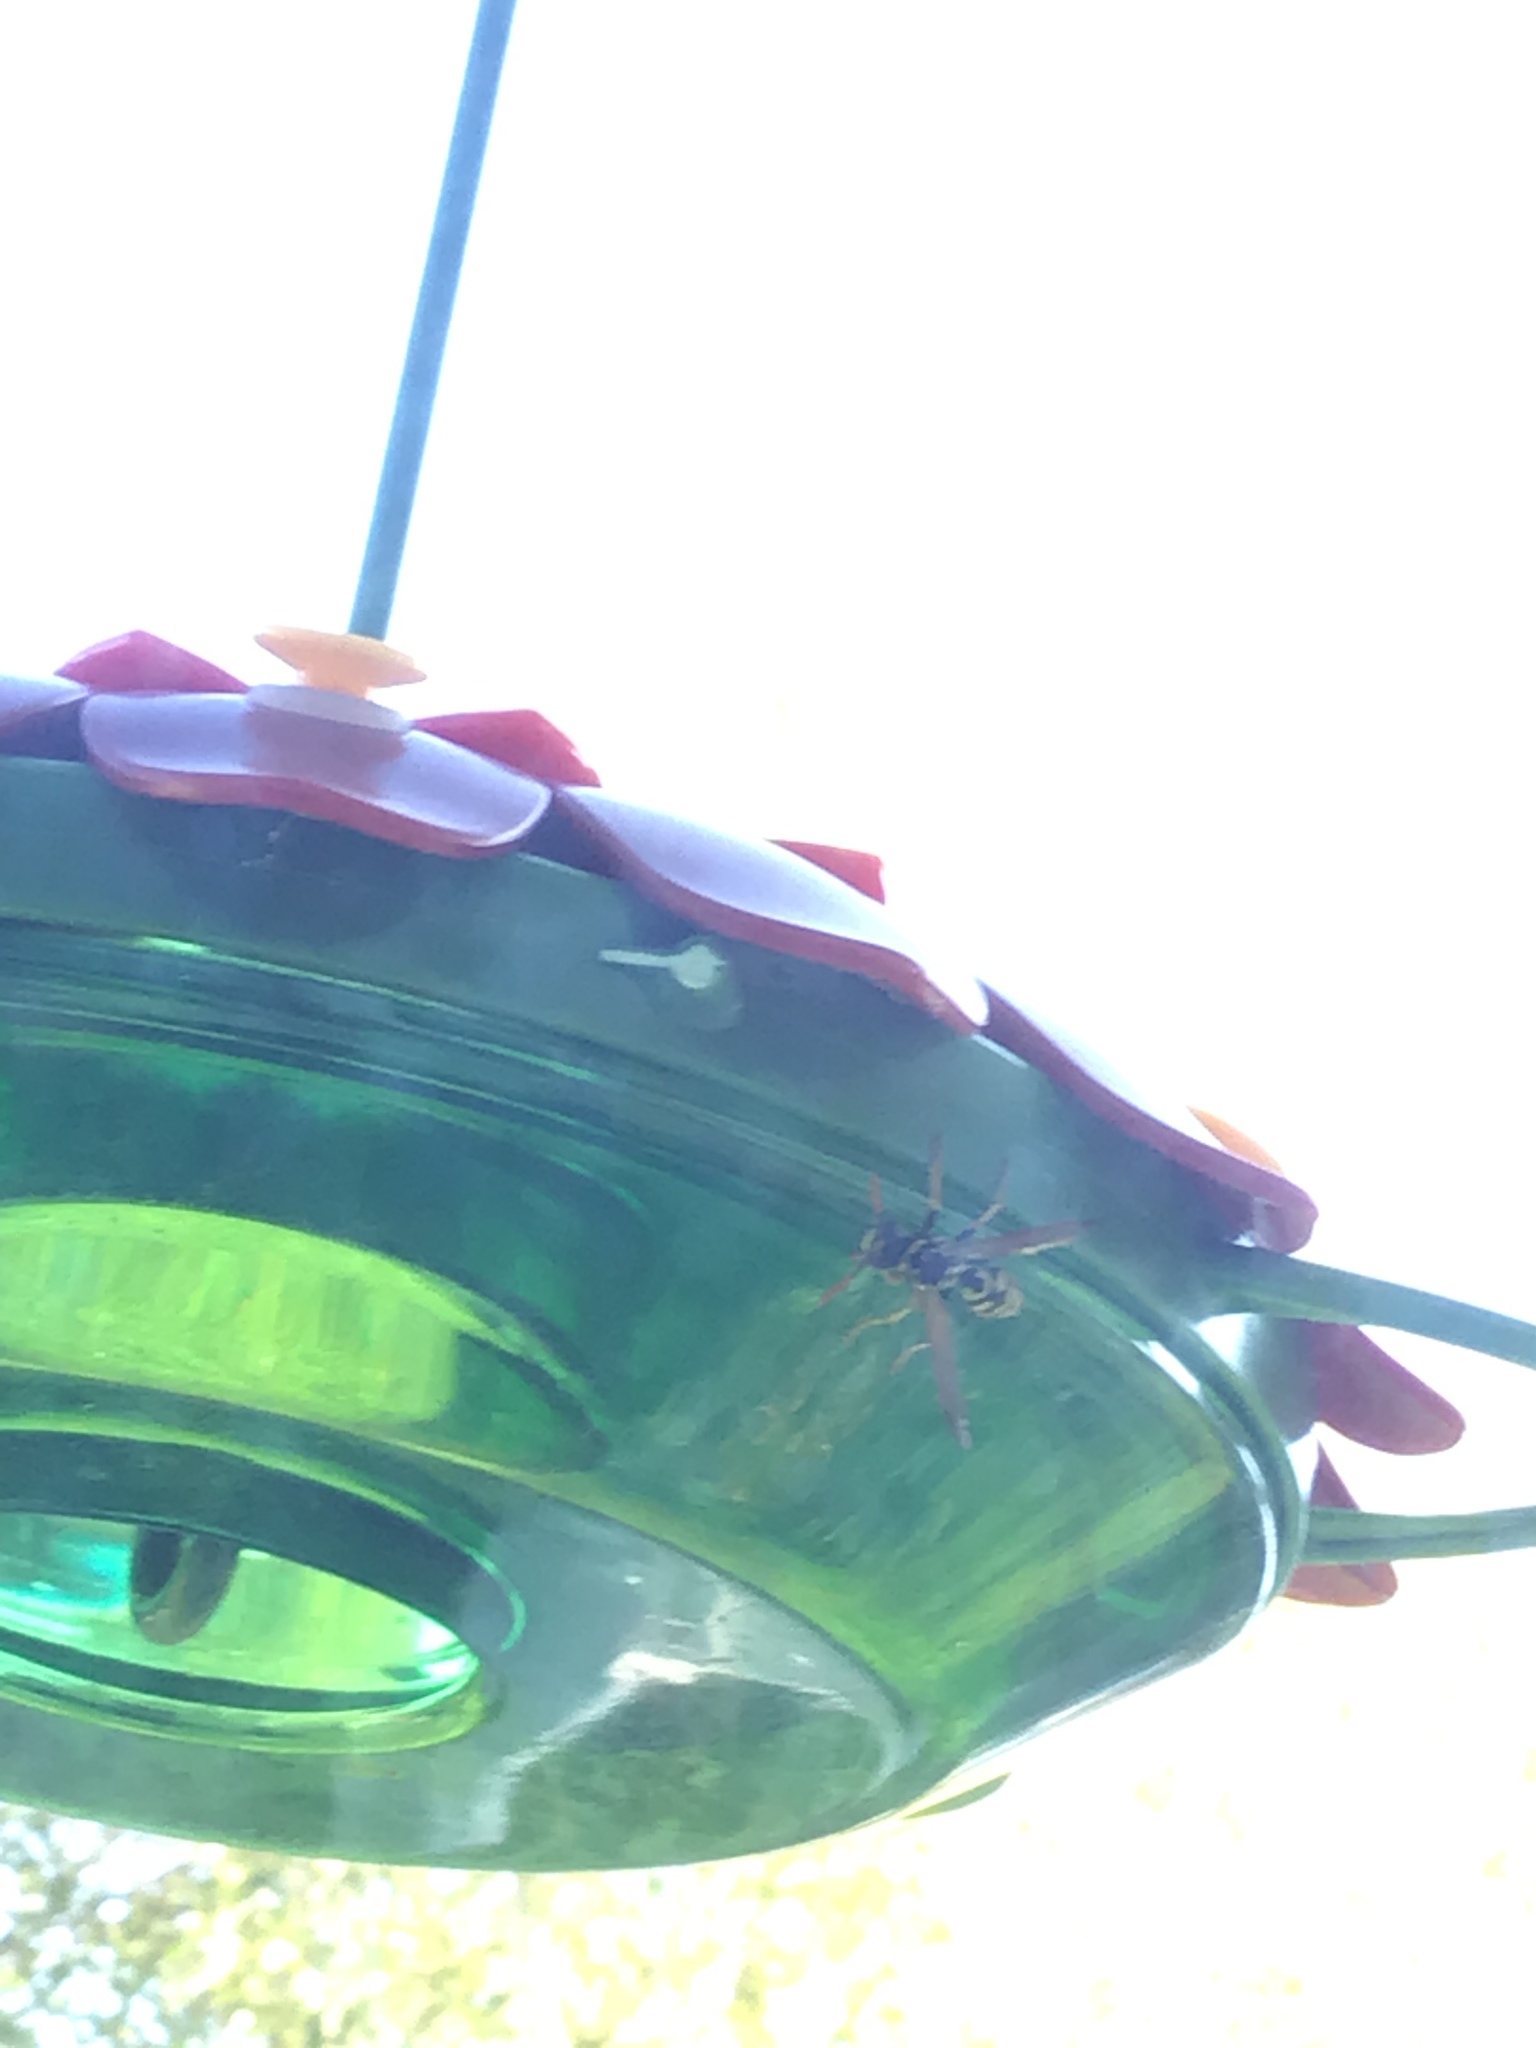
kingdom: Animalia
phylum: Arthropoda
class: Insecta
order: Hymenoptera
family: Eumenidae
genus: Polistes
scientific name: Polistes dominula
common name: Paper wasp
